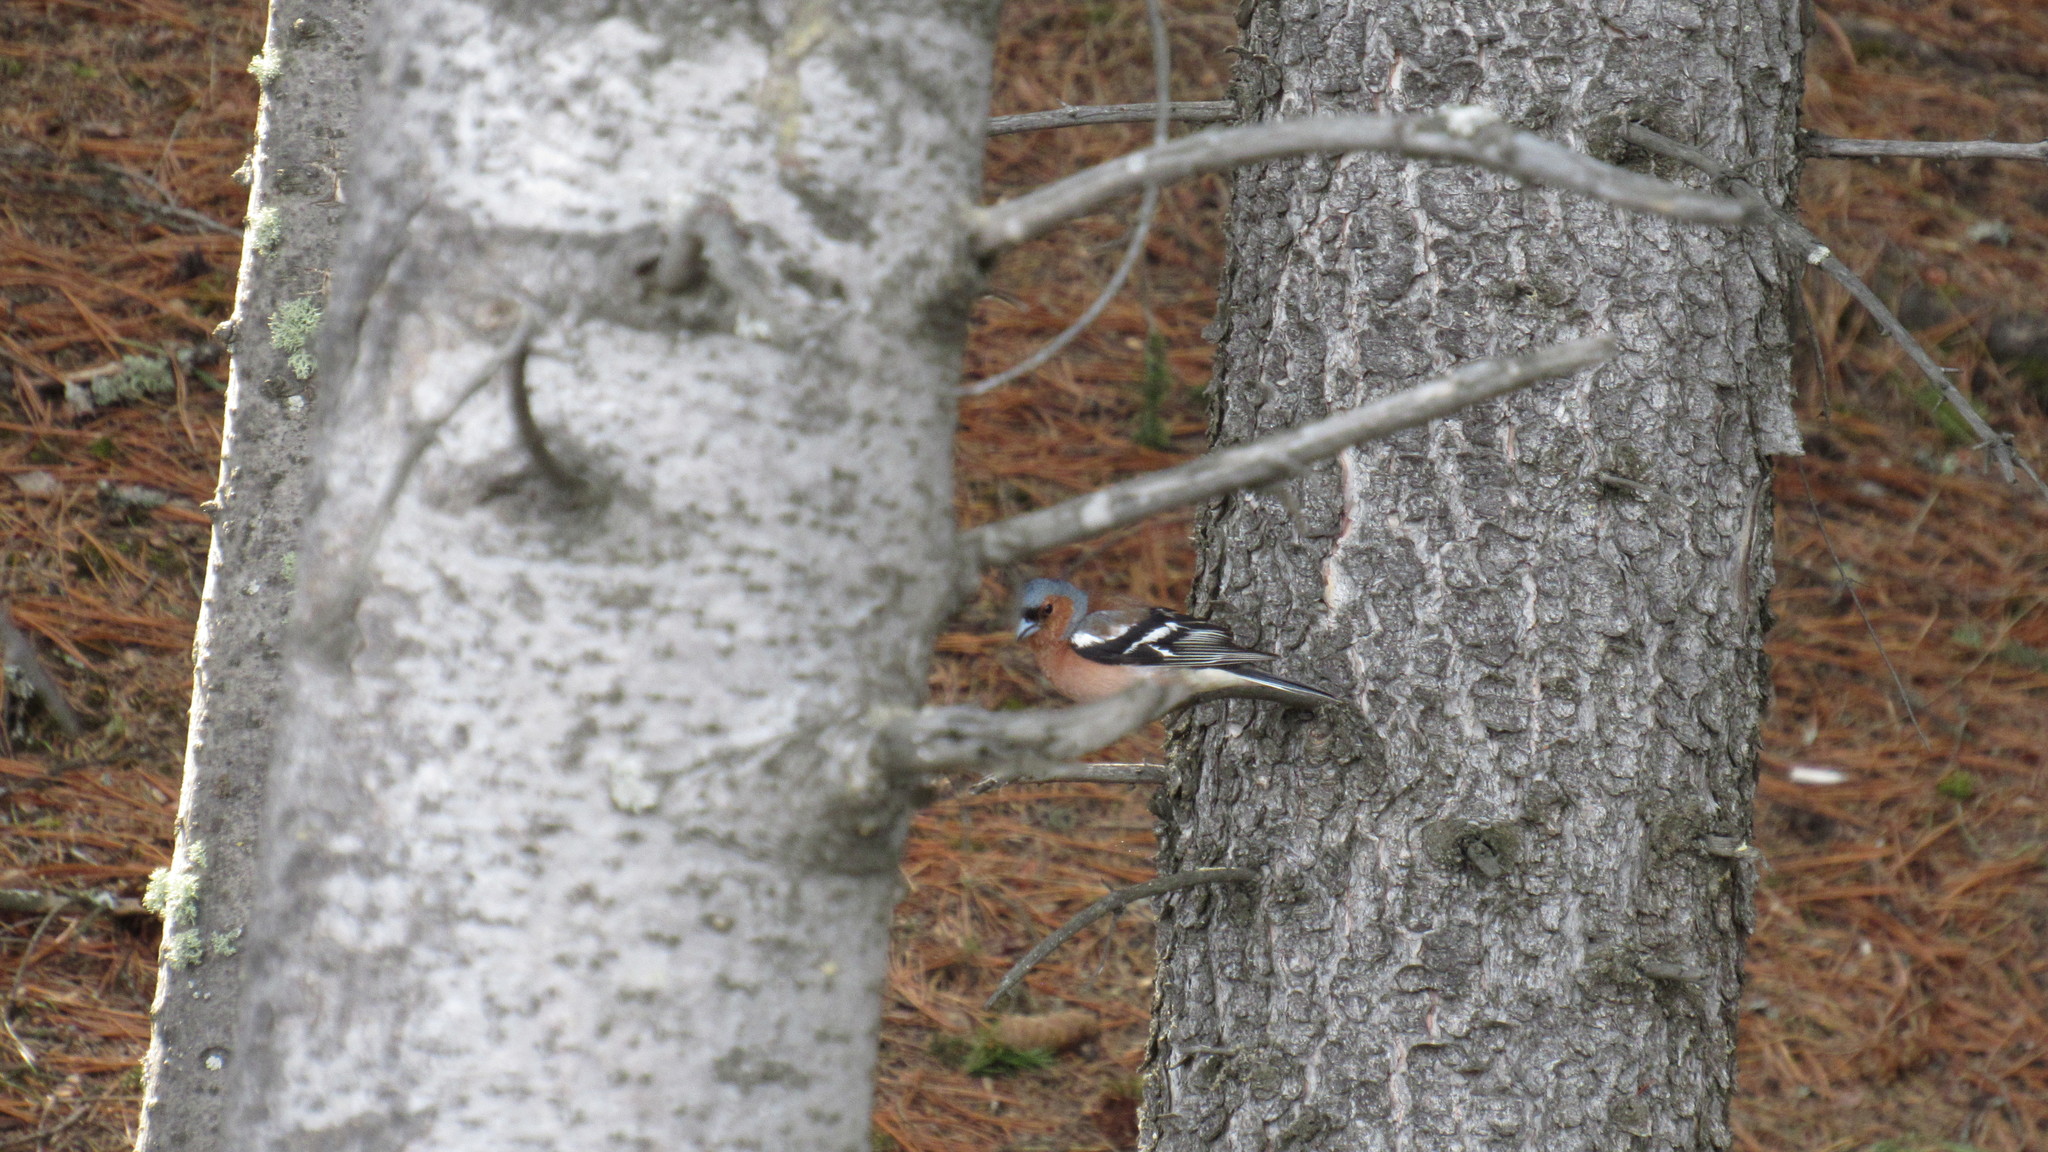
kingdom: Animalia
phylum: Chordata
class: Aves
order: Passeriformes
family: Fringillidae
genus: Fringilla
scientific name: Fringilla coelebs
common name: Common chaffinch
